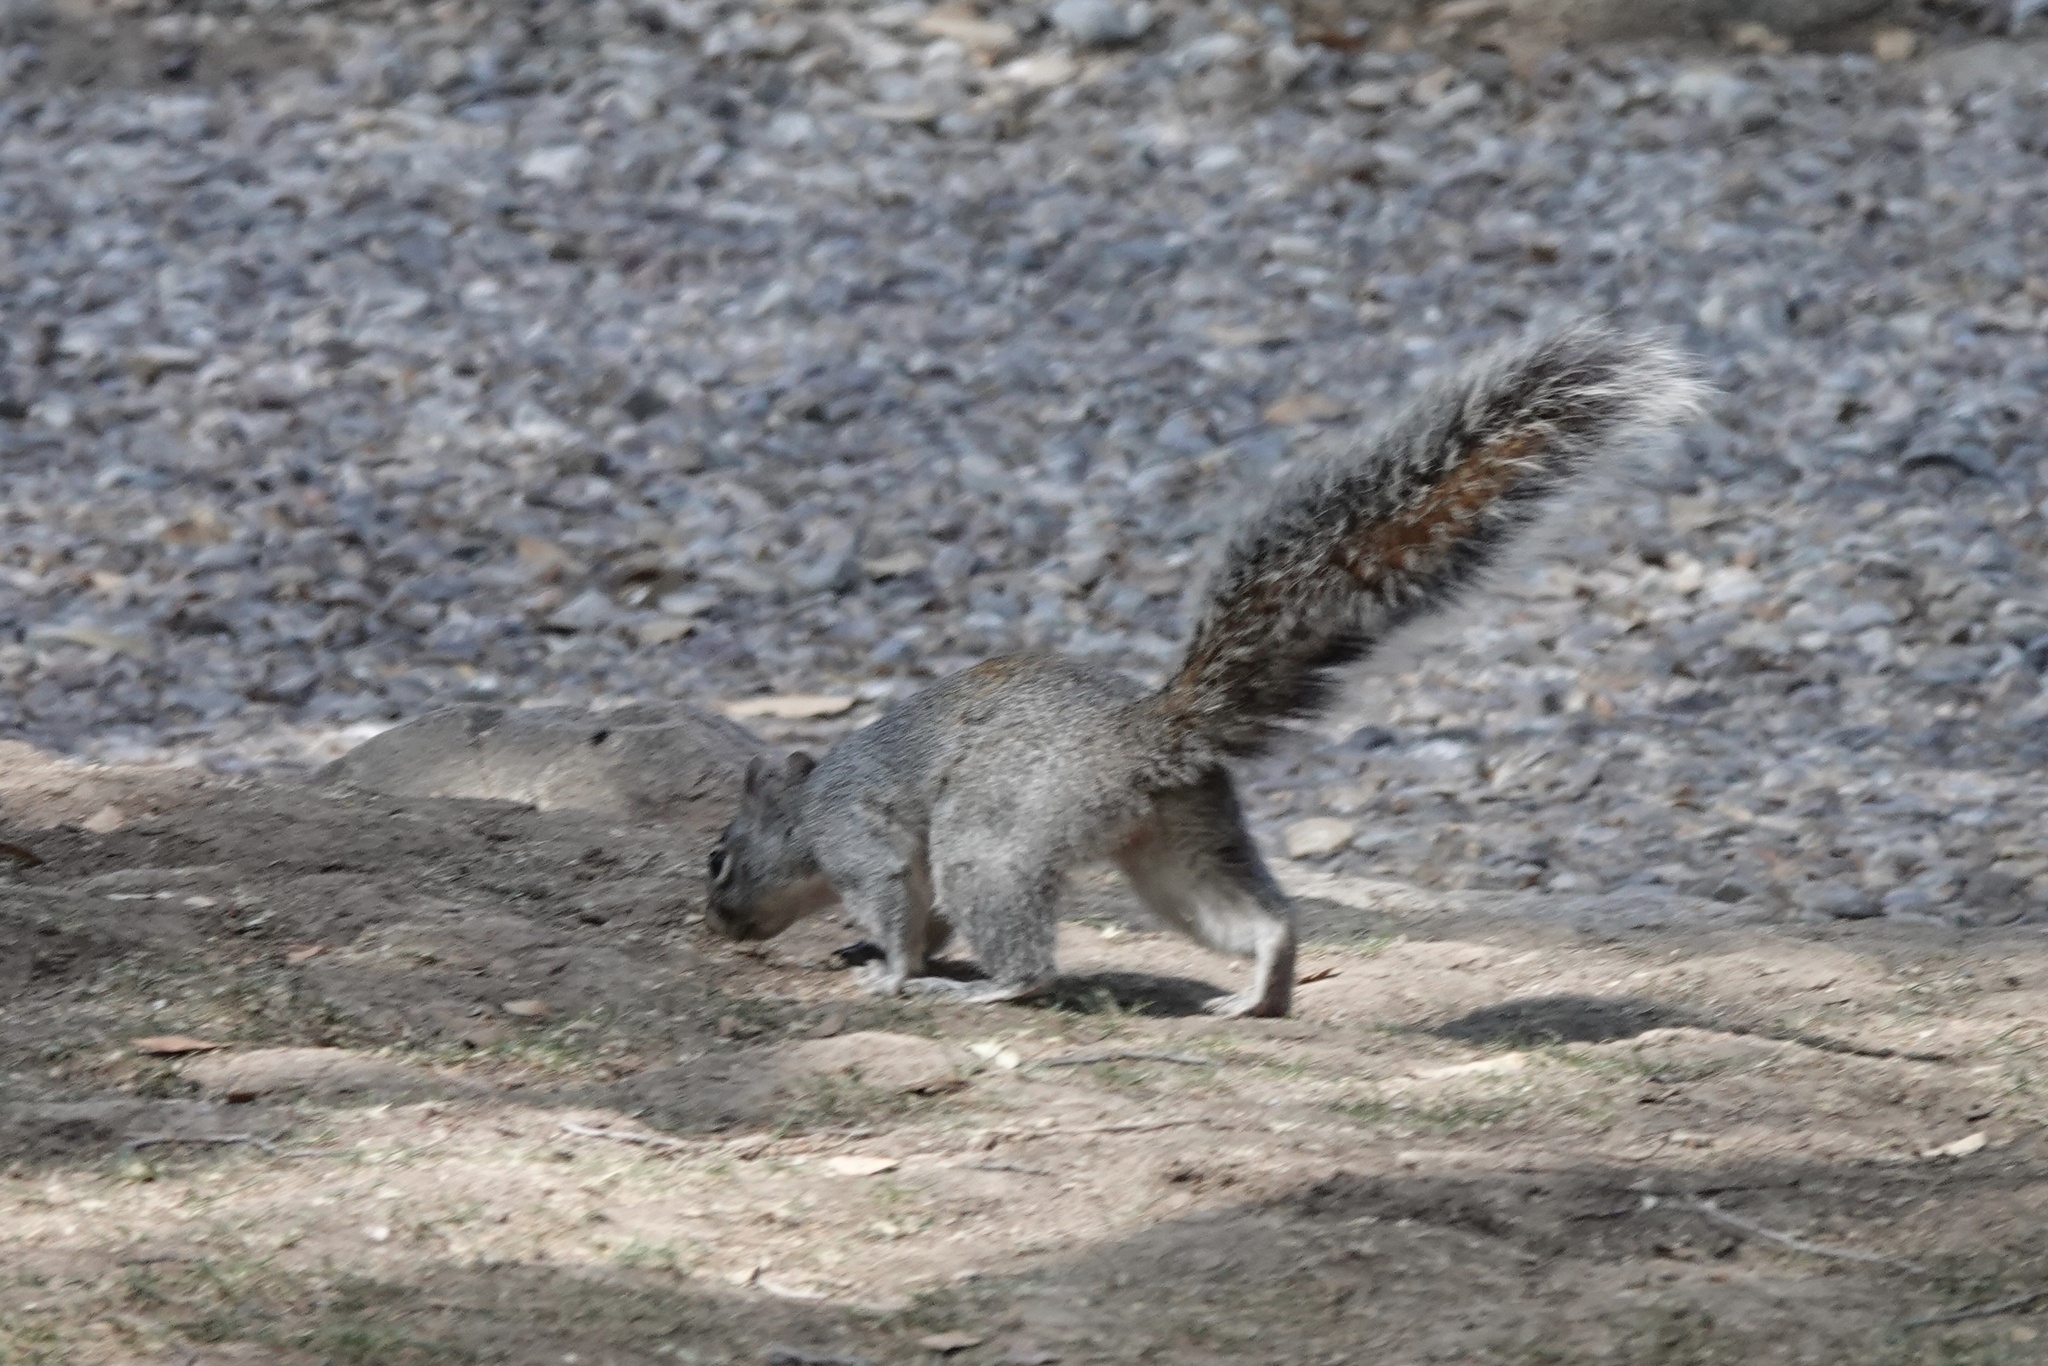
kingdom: Animalia
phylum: Chordata
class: Mammalia
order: Rodentia
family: Sciuridae
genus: Sciurus
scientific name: Sciurus arizonensis
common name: Arizona gray squirrel
